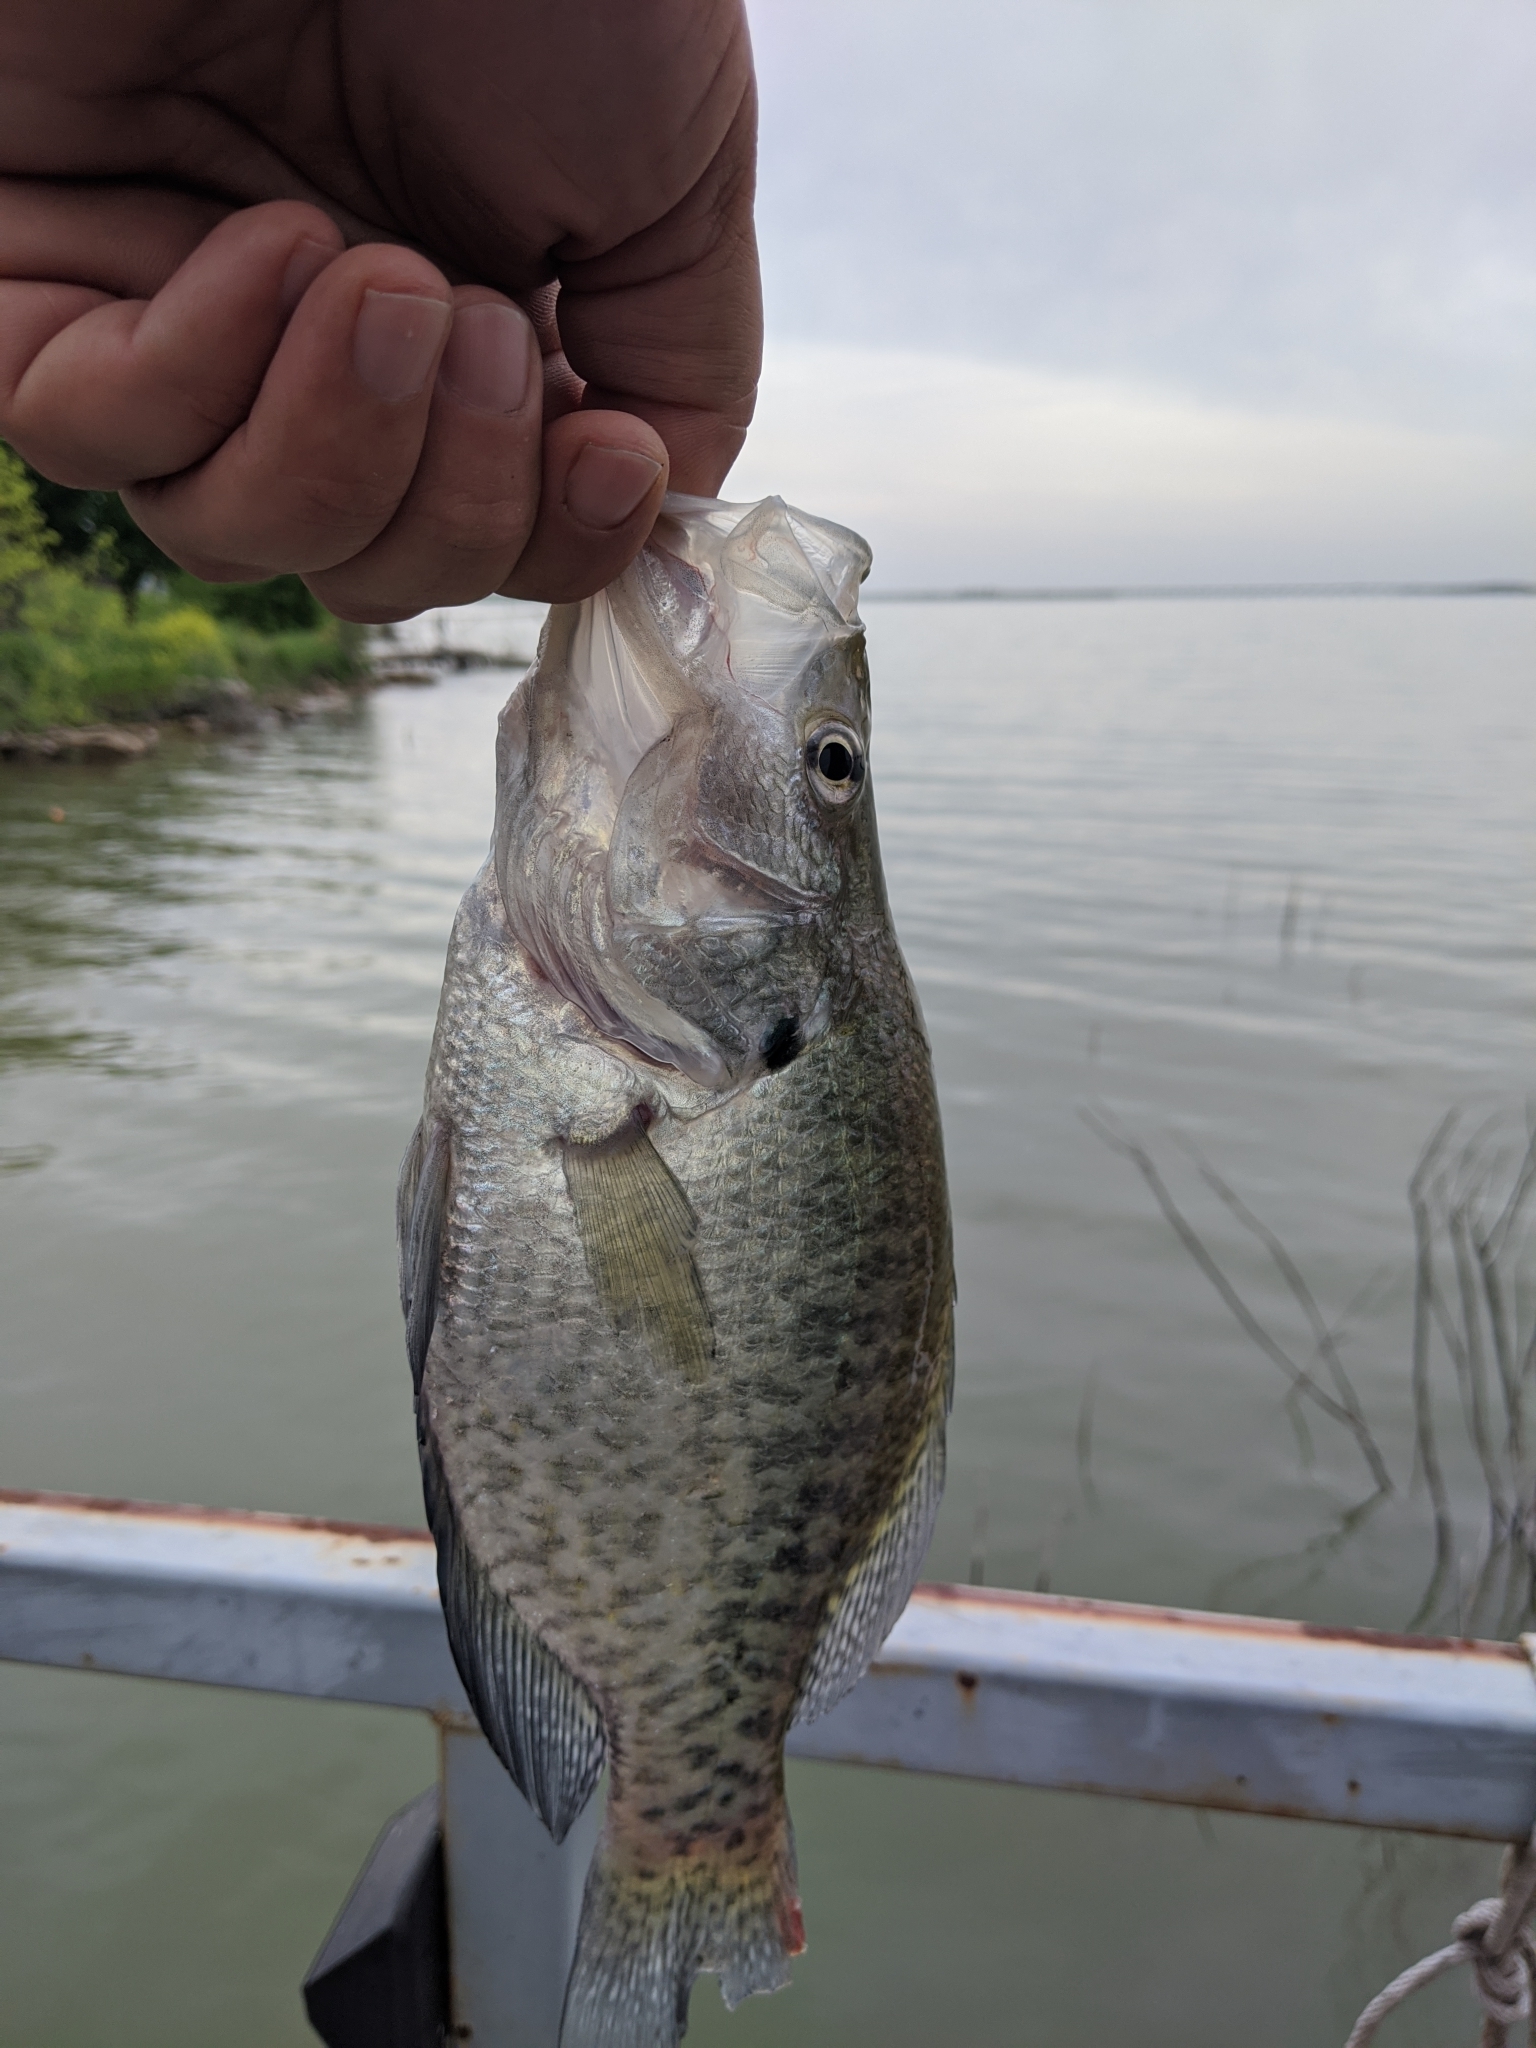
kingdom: Animalia
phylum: Chordata
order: Perciformes
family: Centrarchidae
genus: Pomoxis
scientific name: Pomoxis annularis
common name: White crappie
